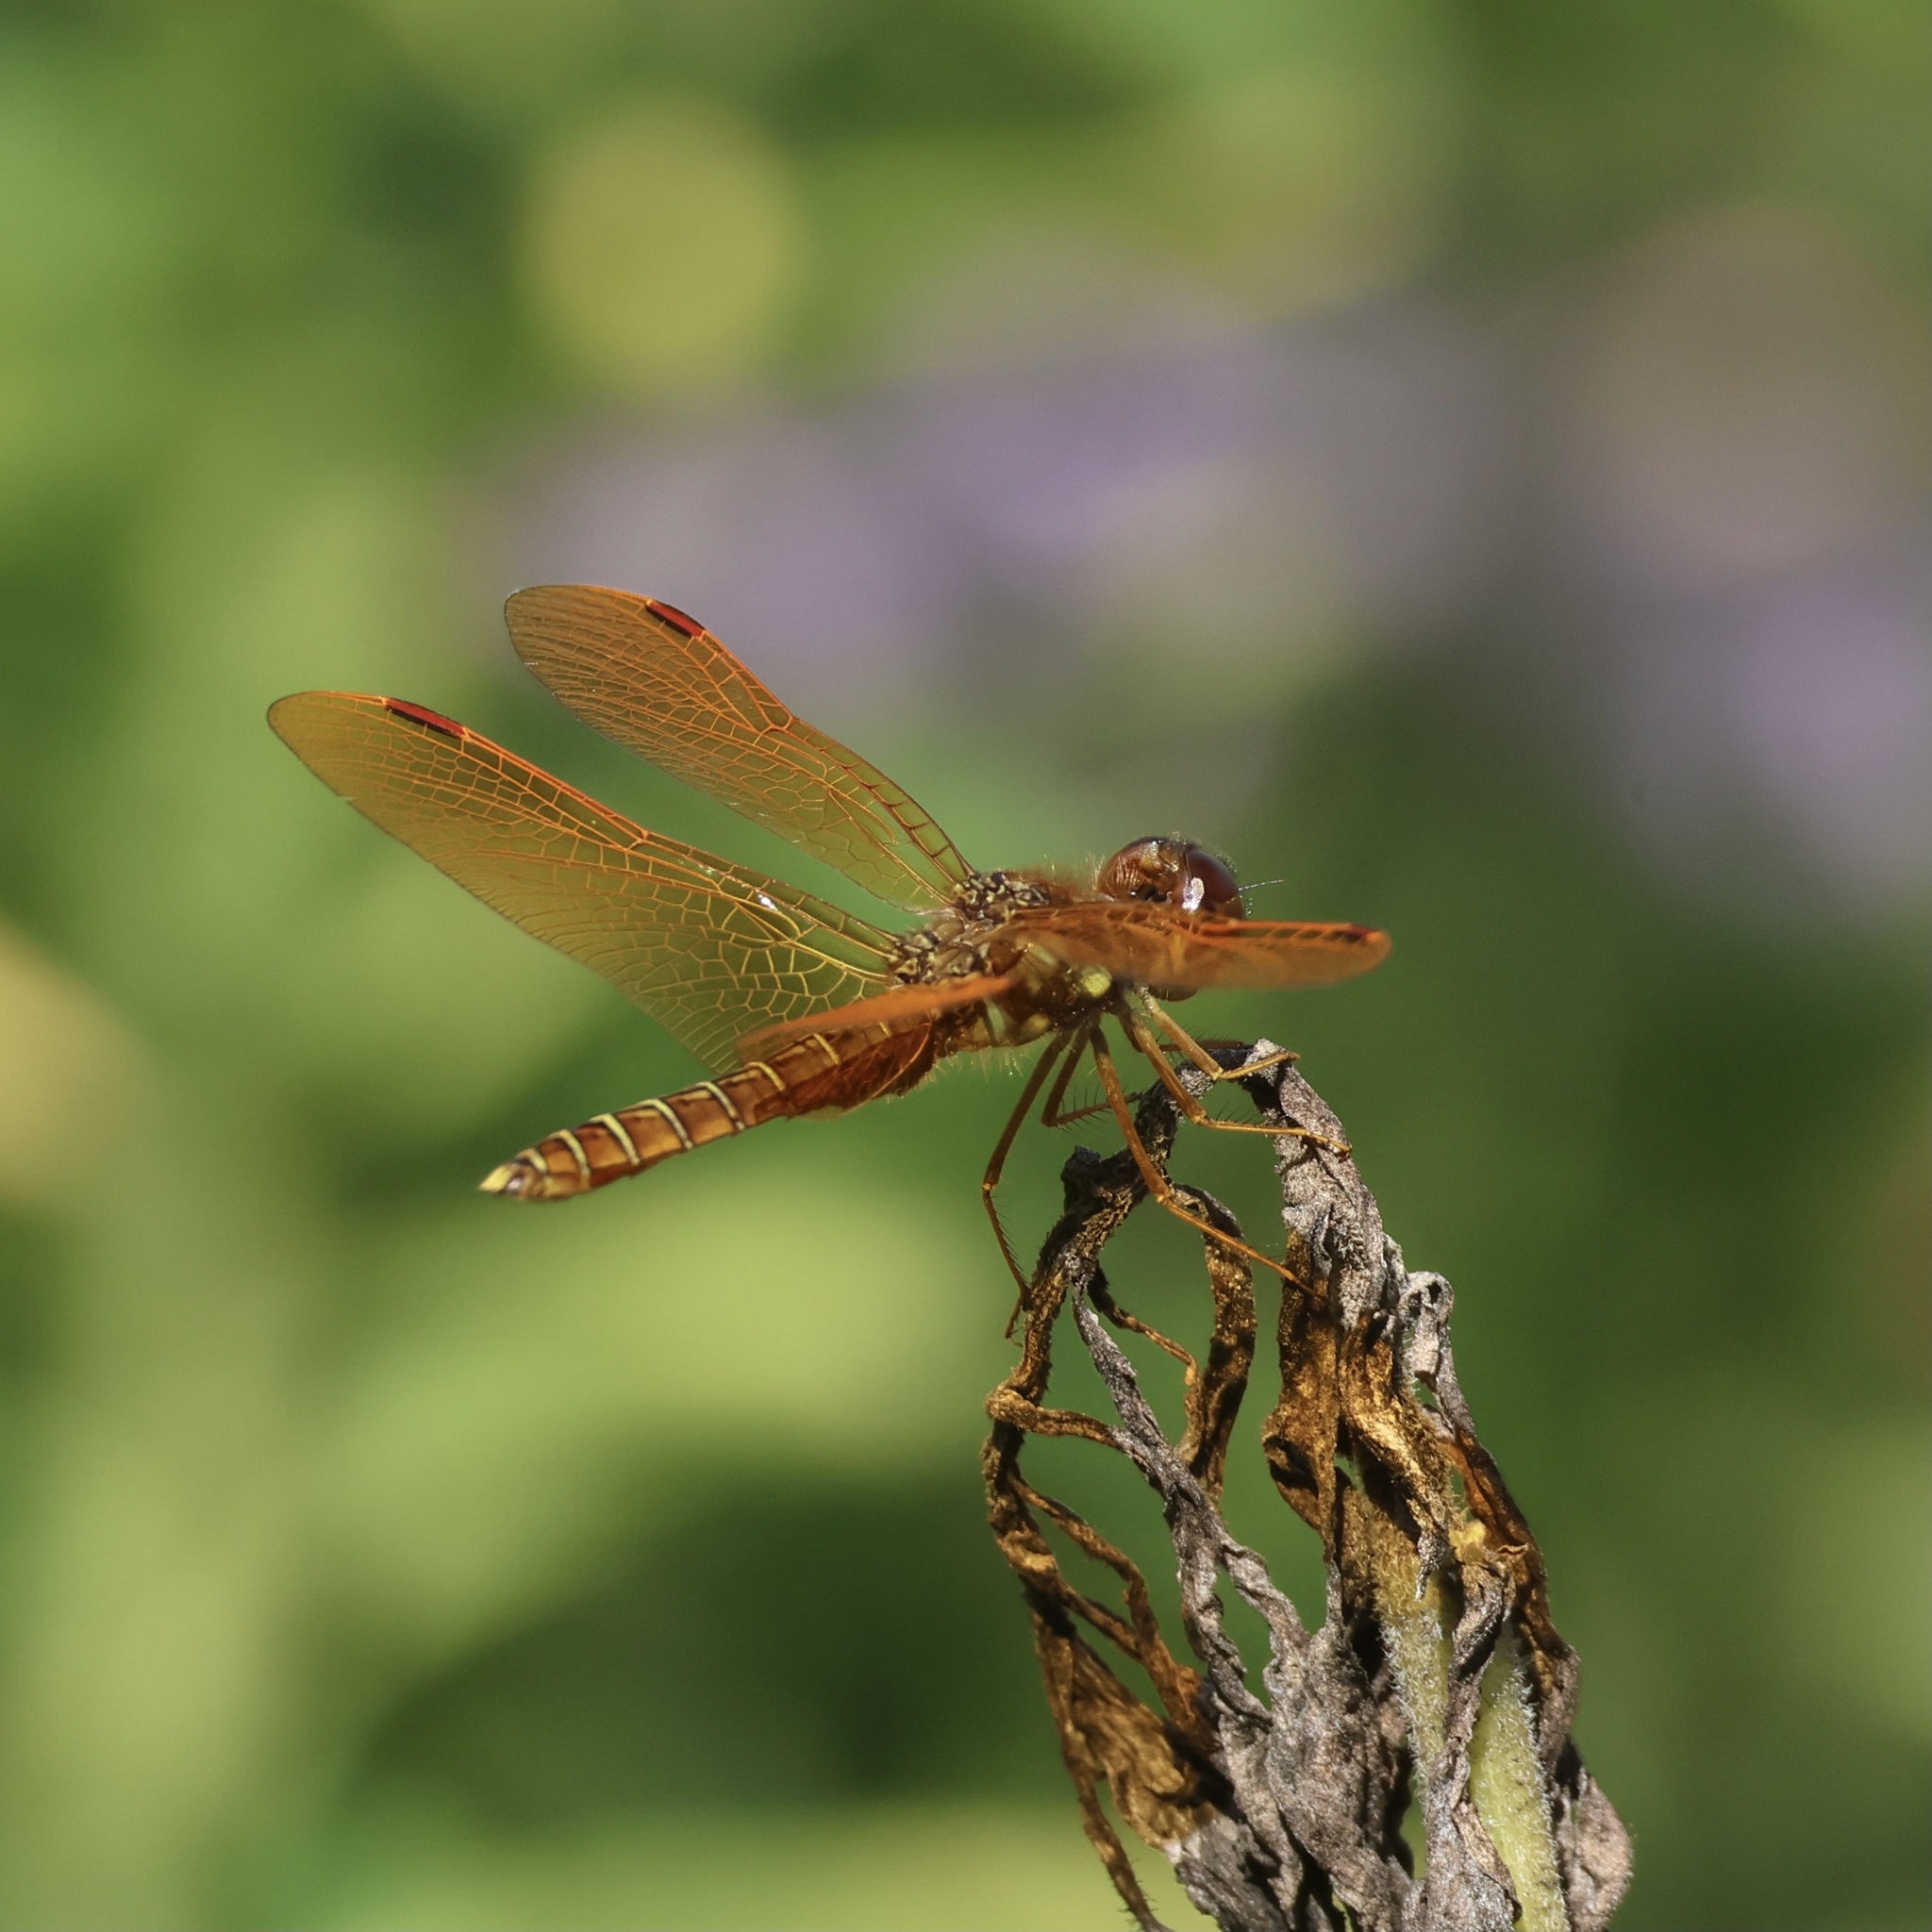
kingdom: Animalia
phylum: Arthropoda
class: Insecta
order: Odonata
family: Libellulidae
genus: Perithemis
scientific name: Perithemis tenera
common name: Eastern amberwing
